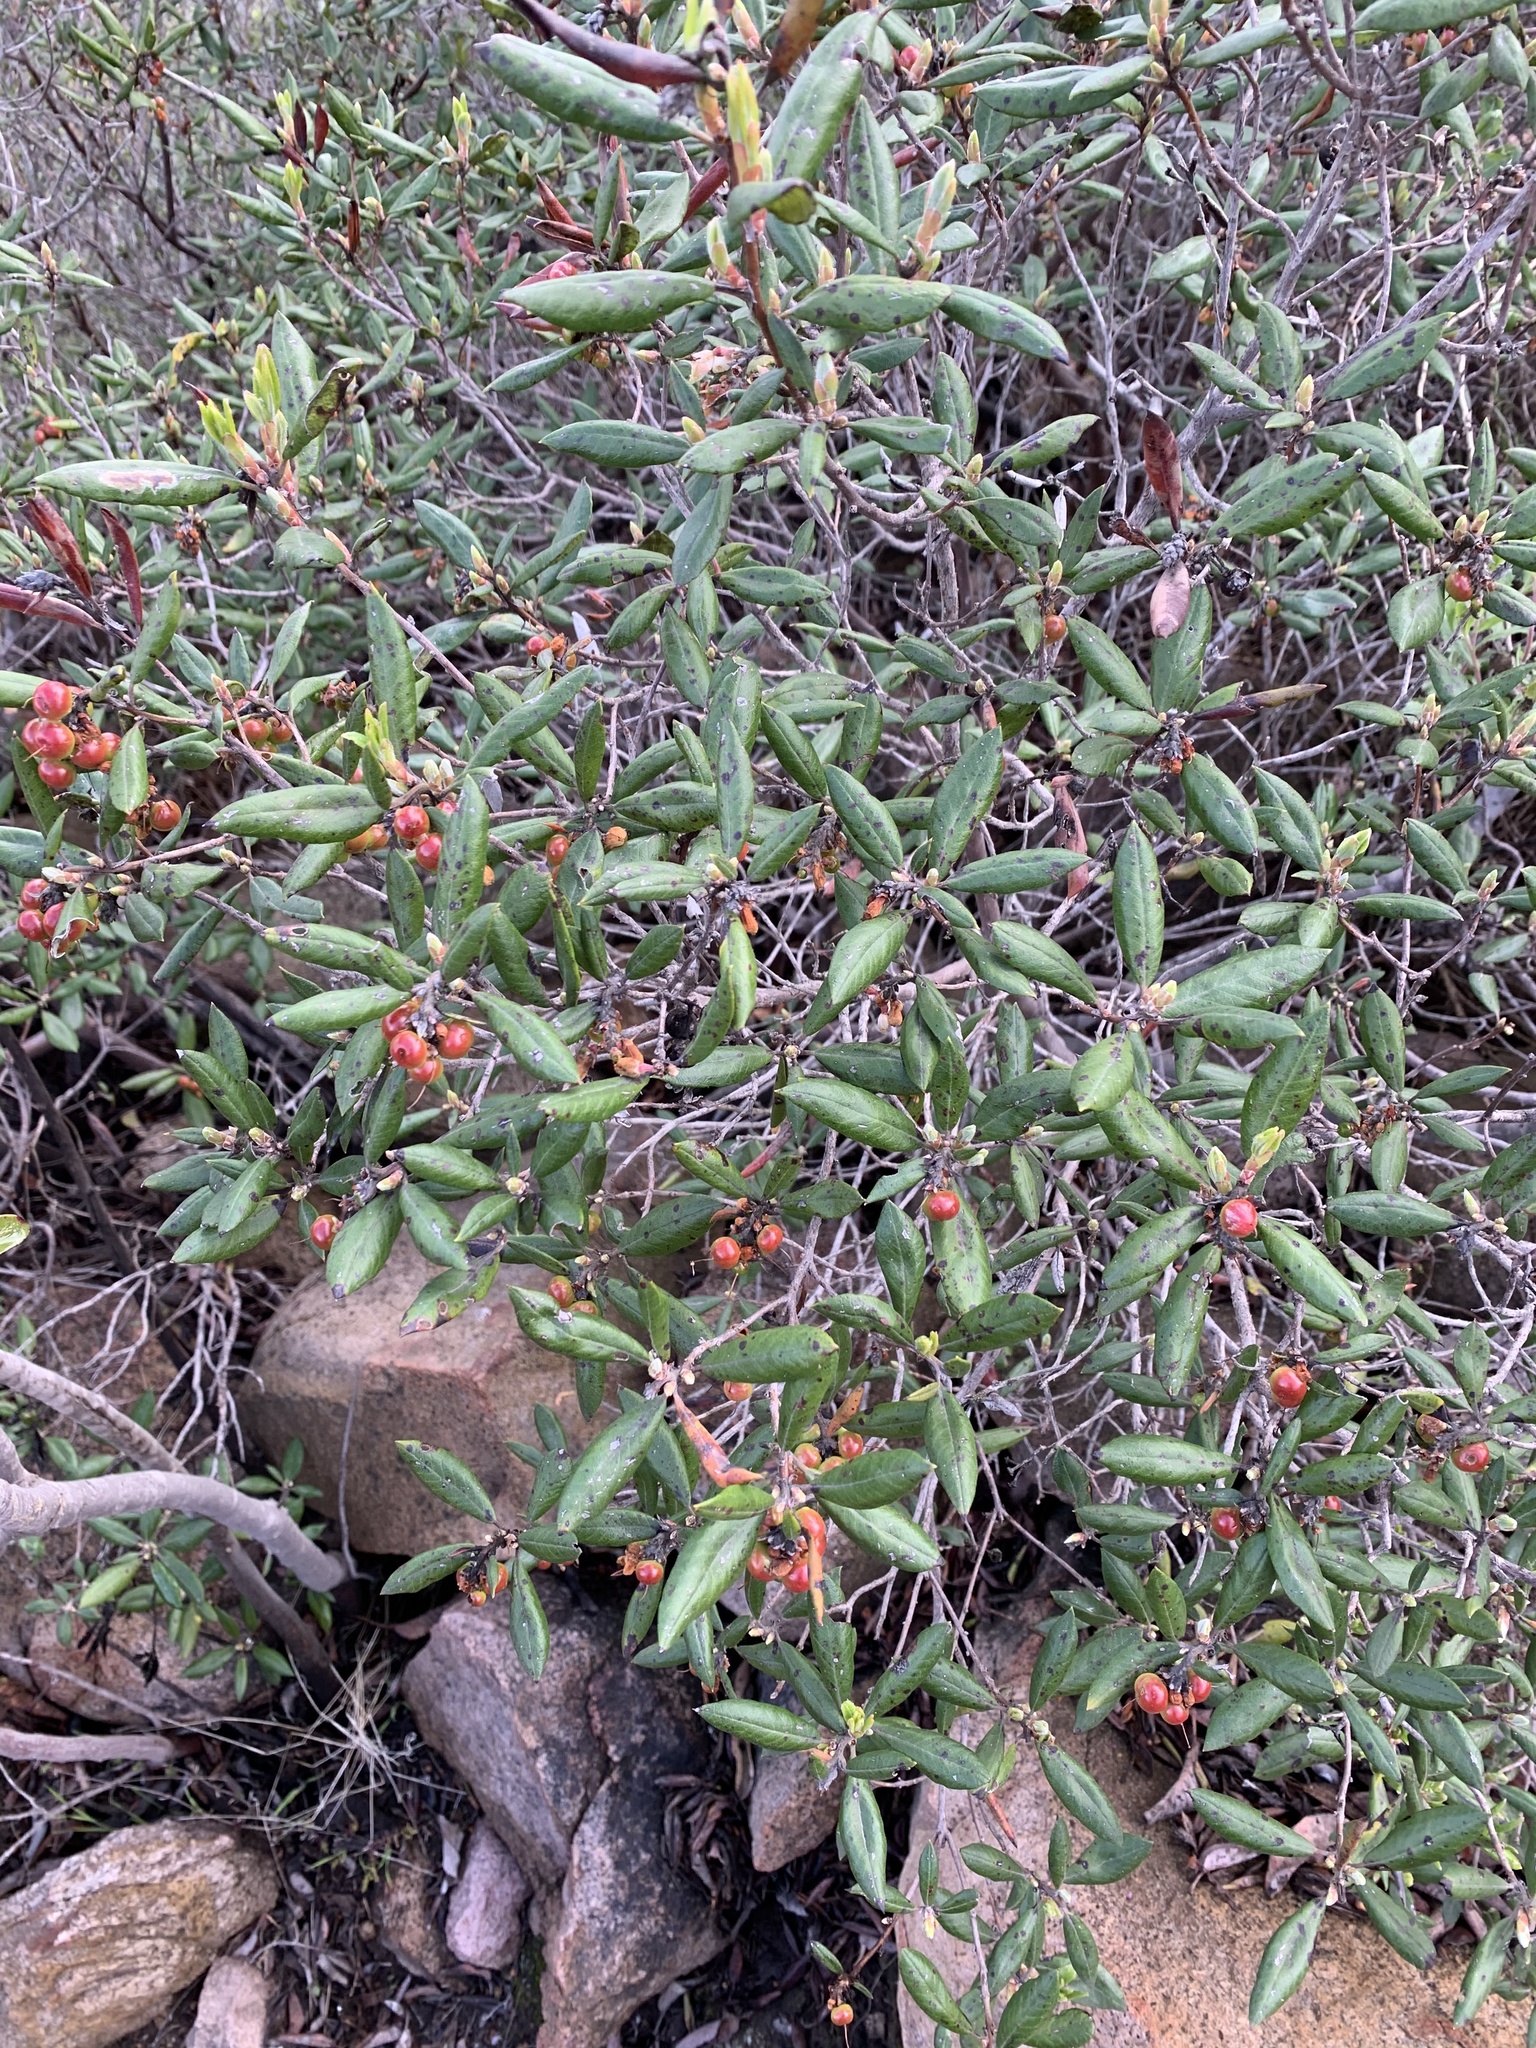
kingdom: Plantae
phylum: Tracheophyta
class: Magnoliopsida
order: Ericales
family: Ericaceae
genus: Arctostaphylos
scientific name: Arctostaphylos bicolor
